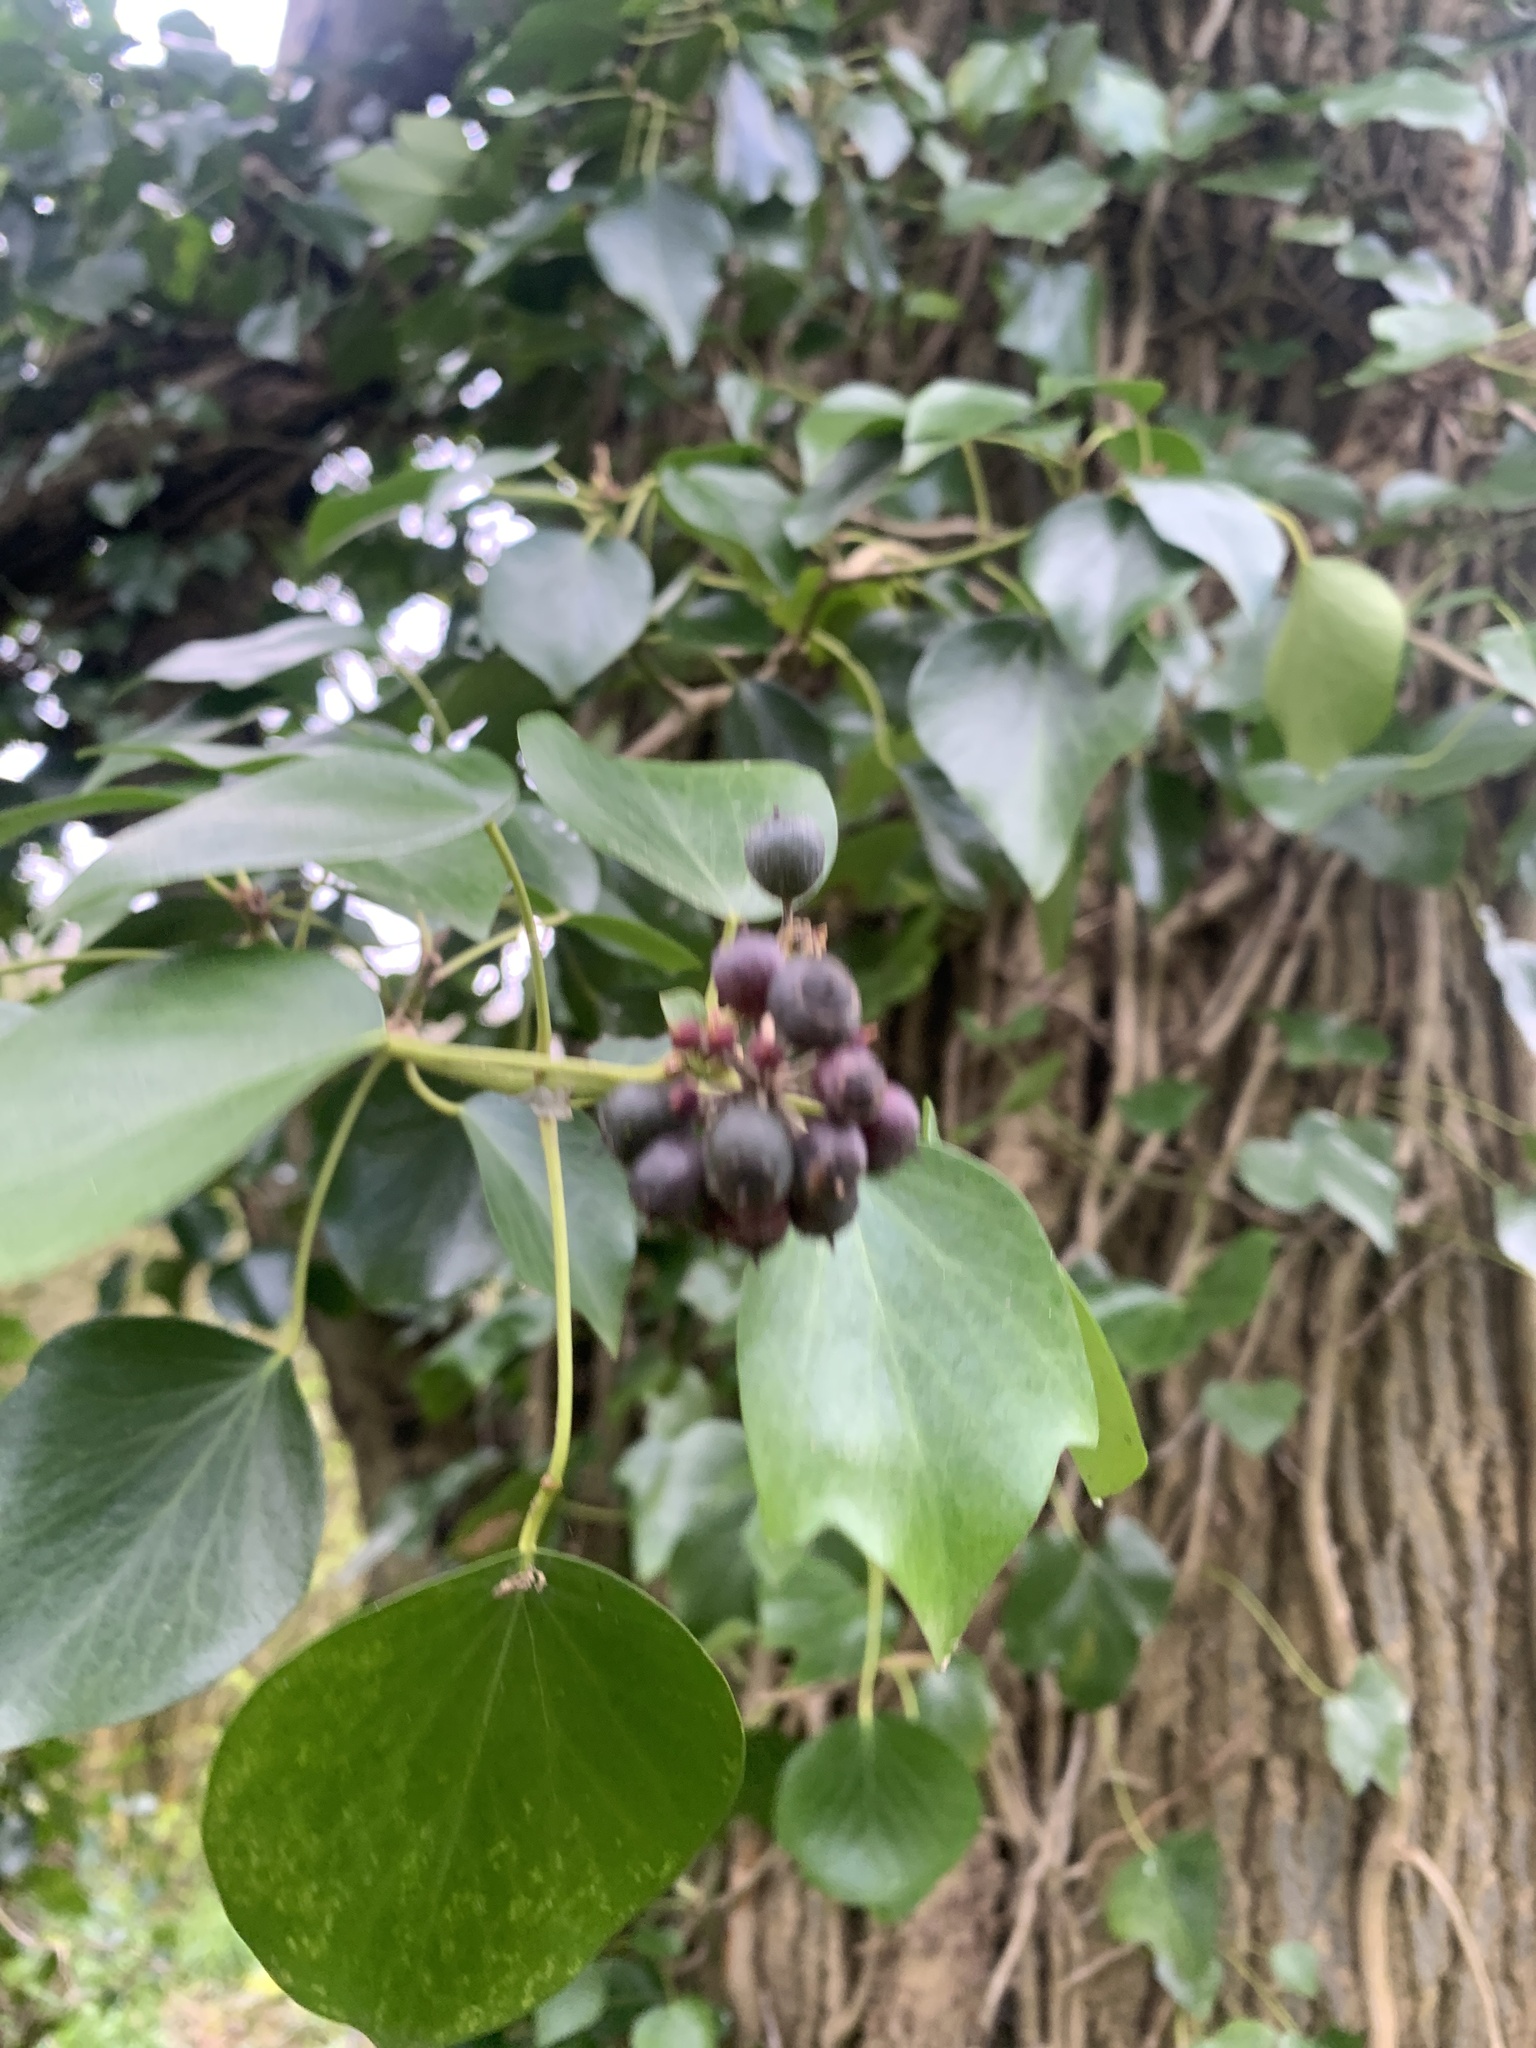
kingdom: Plantae
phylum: Tracheophyta
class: Magnoliopsida
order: Apiales
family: Araliaceae
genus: Hedera
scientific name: Hedera helix
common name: Ivy
